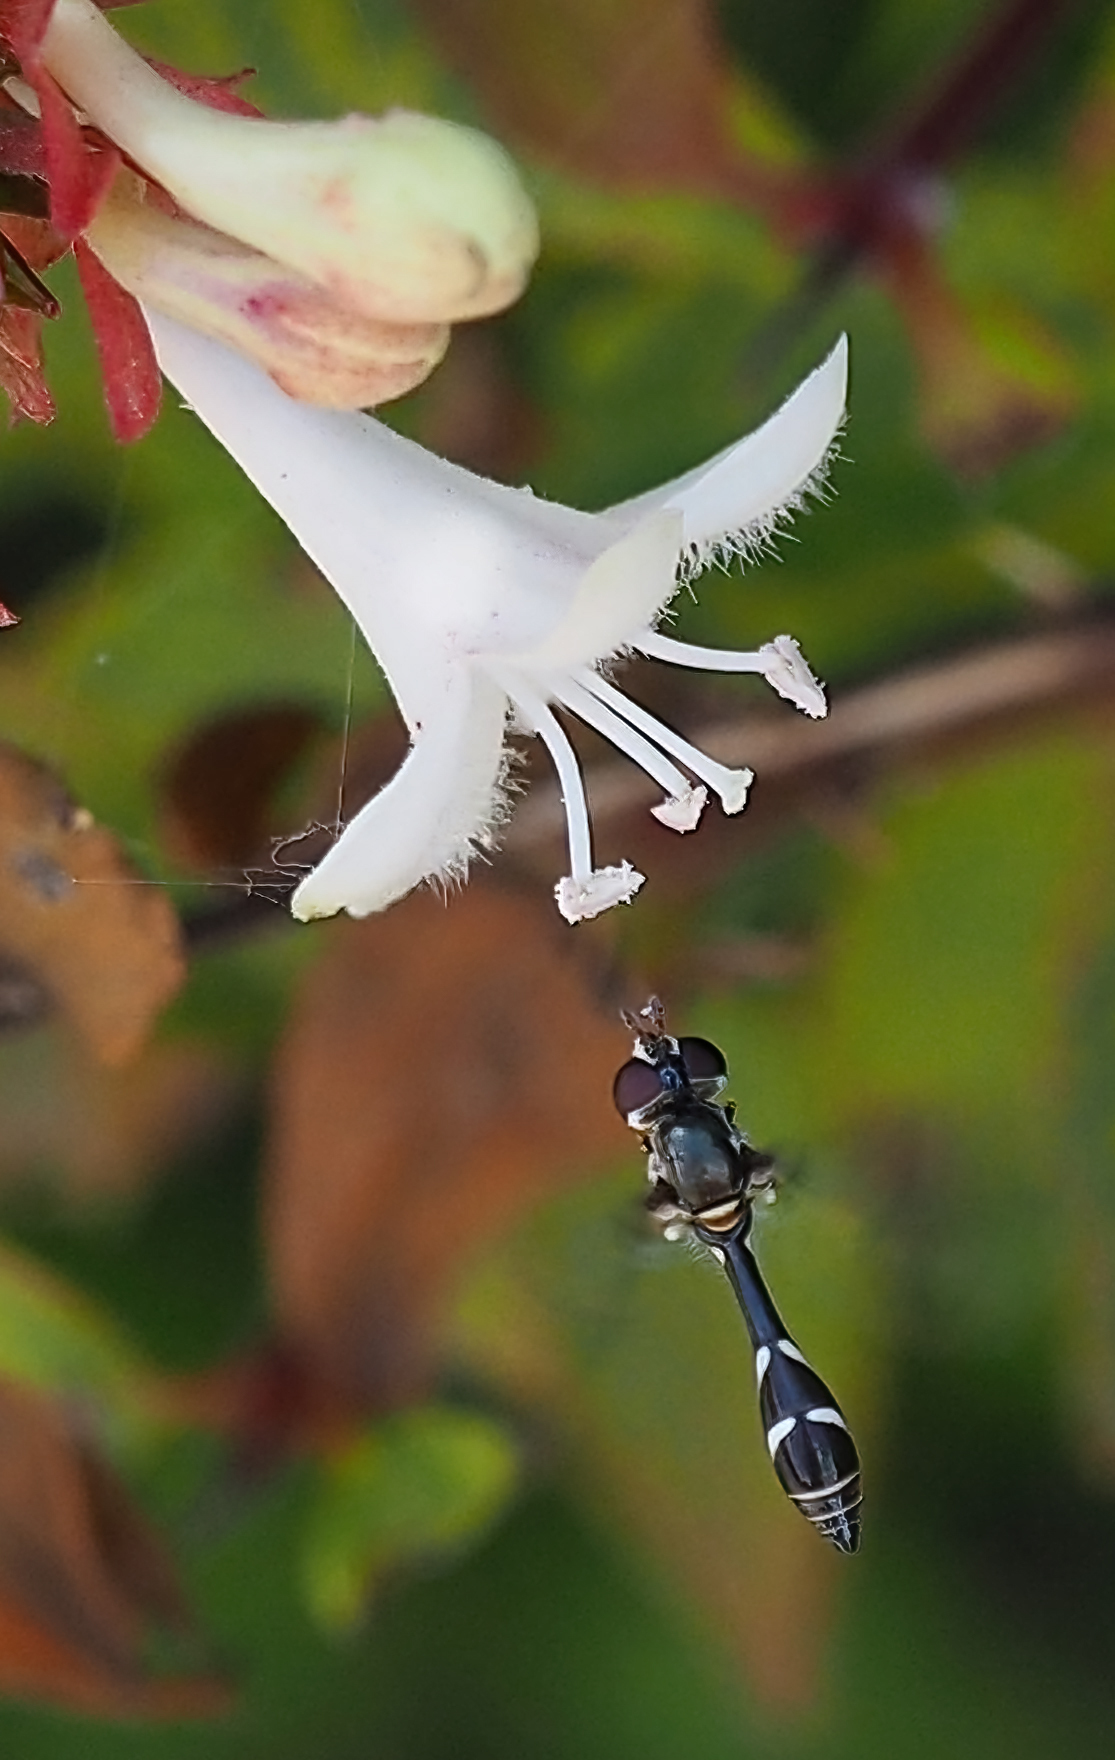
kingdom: Animalia
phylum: Arthropoda
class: Insecta
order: Diptera
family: Syrphidae
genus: Dioprosopa
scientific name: Dioprosopa clavatus
